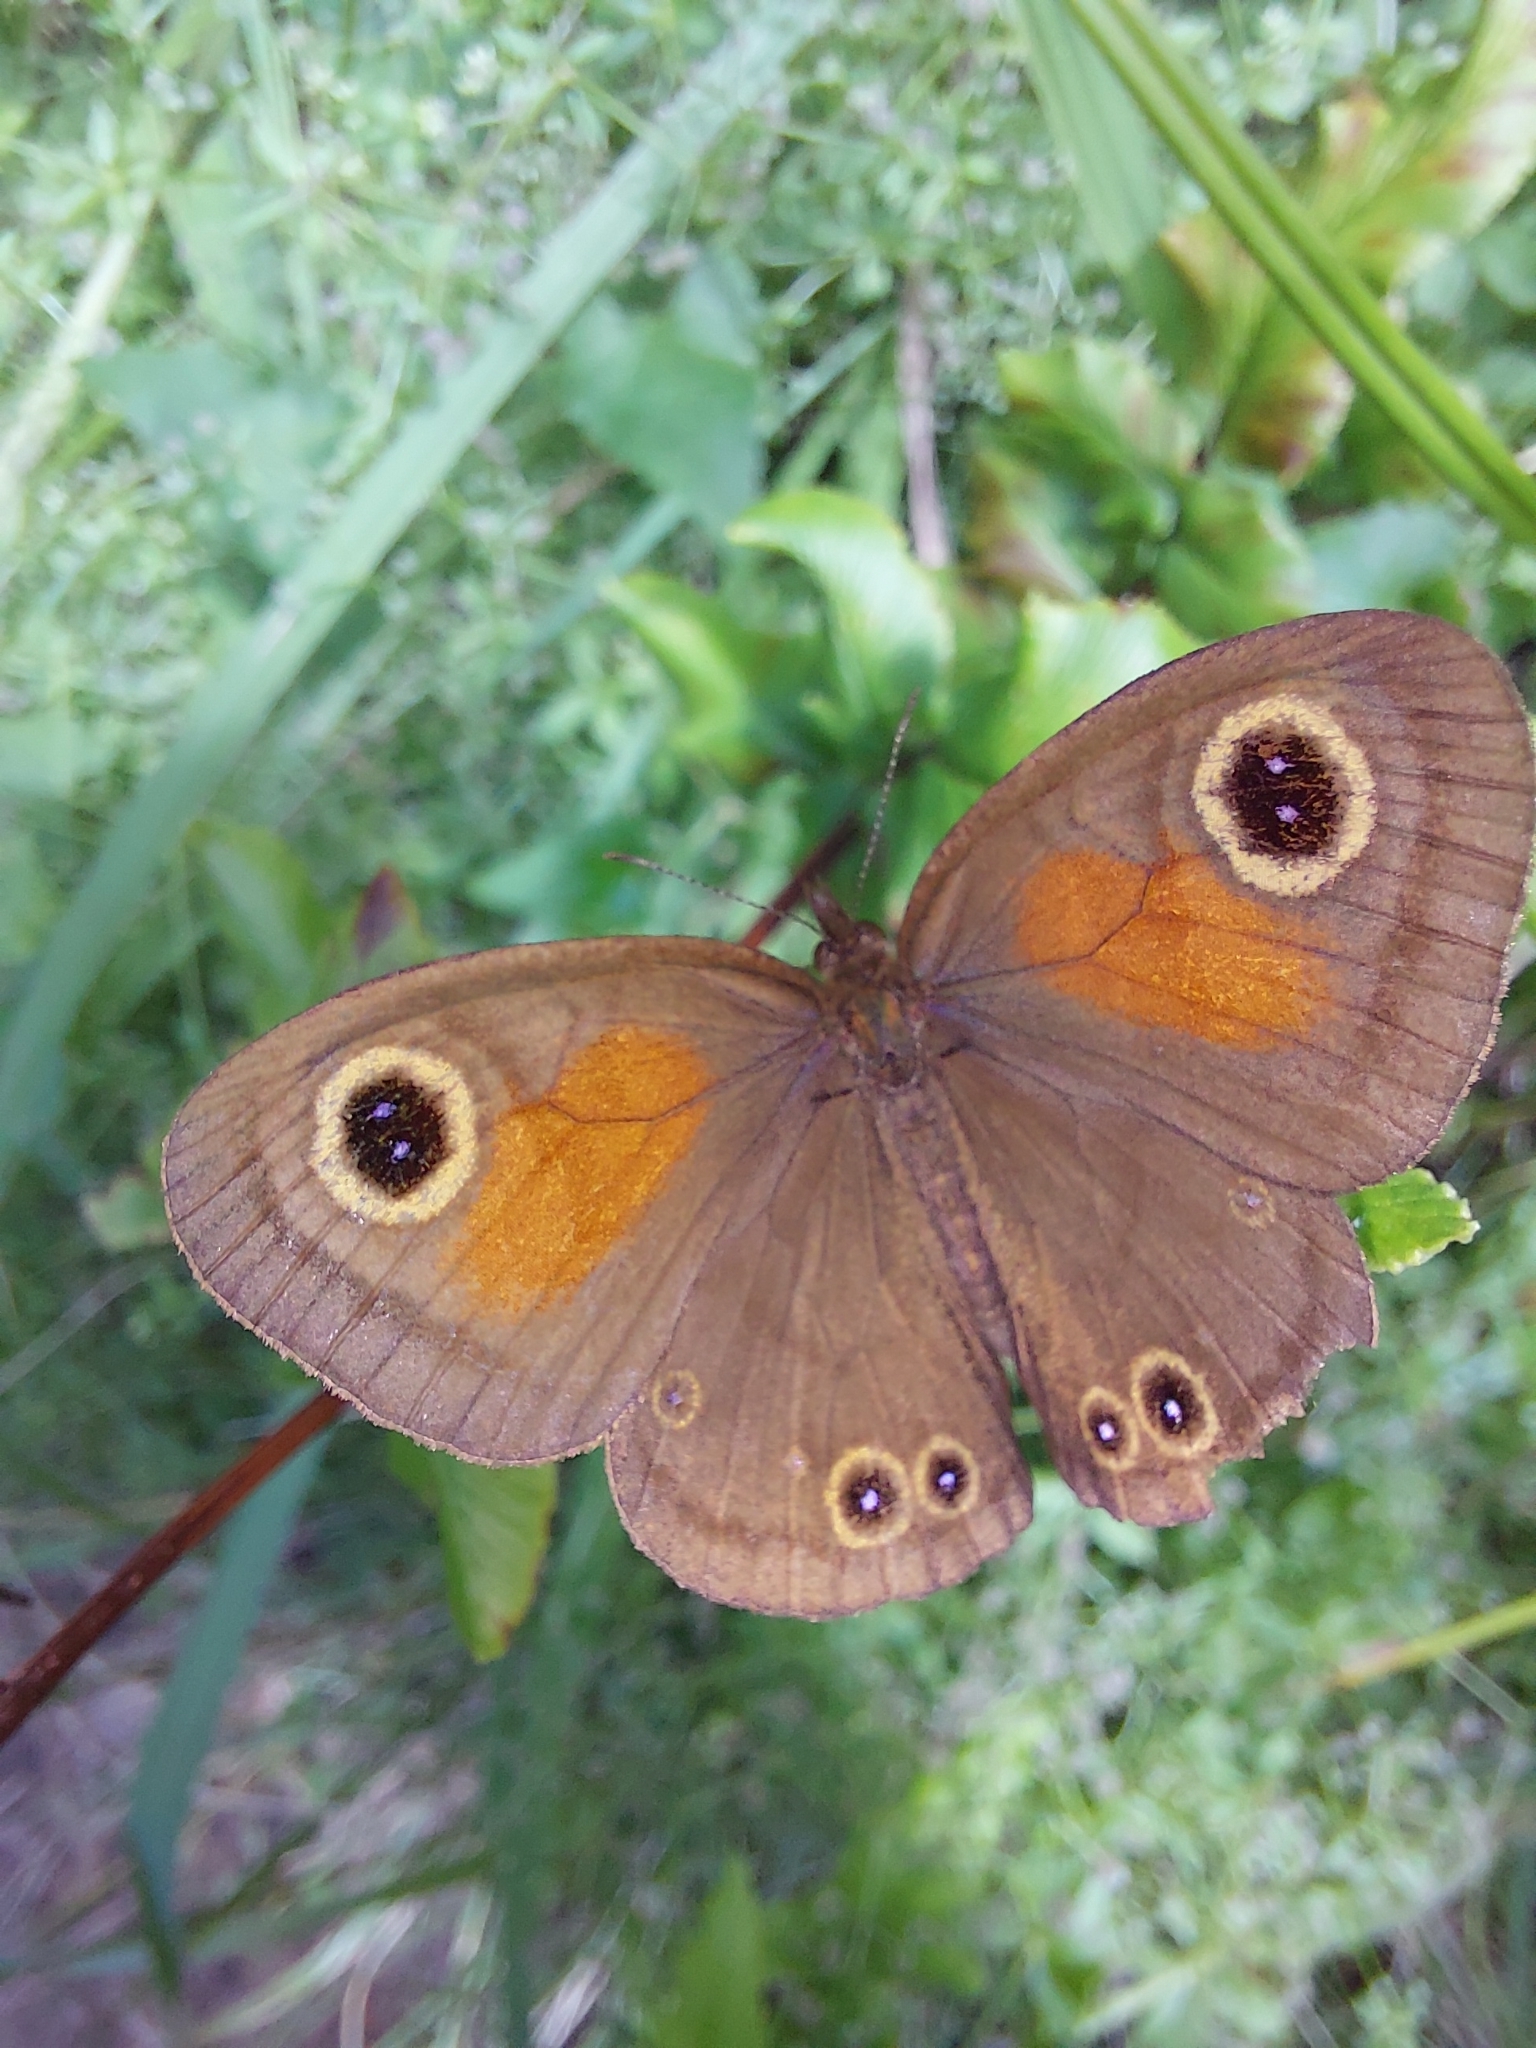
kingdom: Animalia
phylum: Arthropoda
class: Insecta
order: Lepidoptera
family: Nymphalidae
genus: Cassionympha
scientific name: Cassionympha cassius
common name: Rainforest brown
